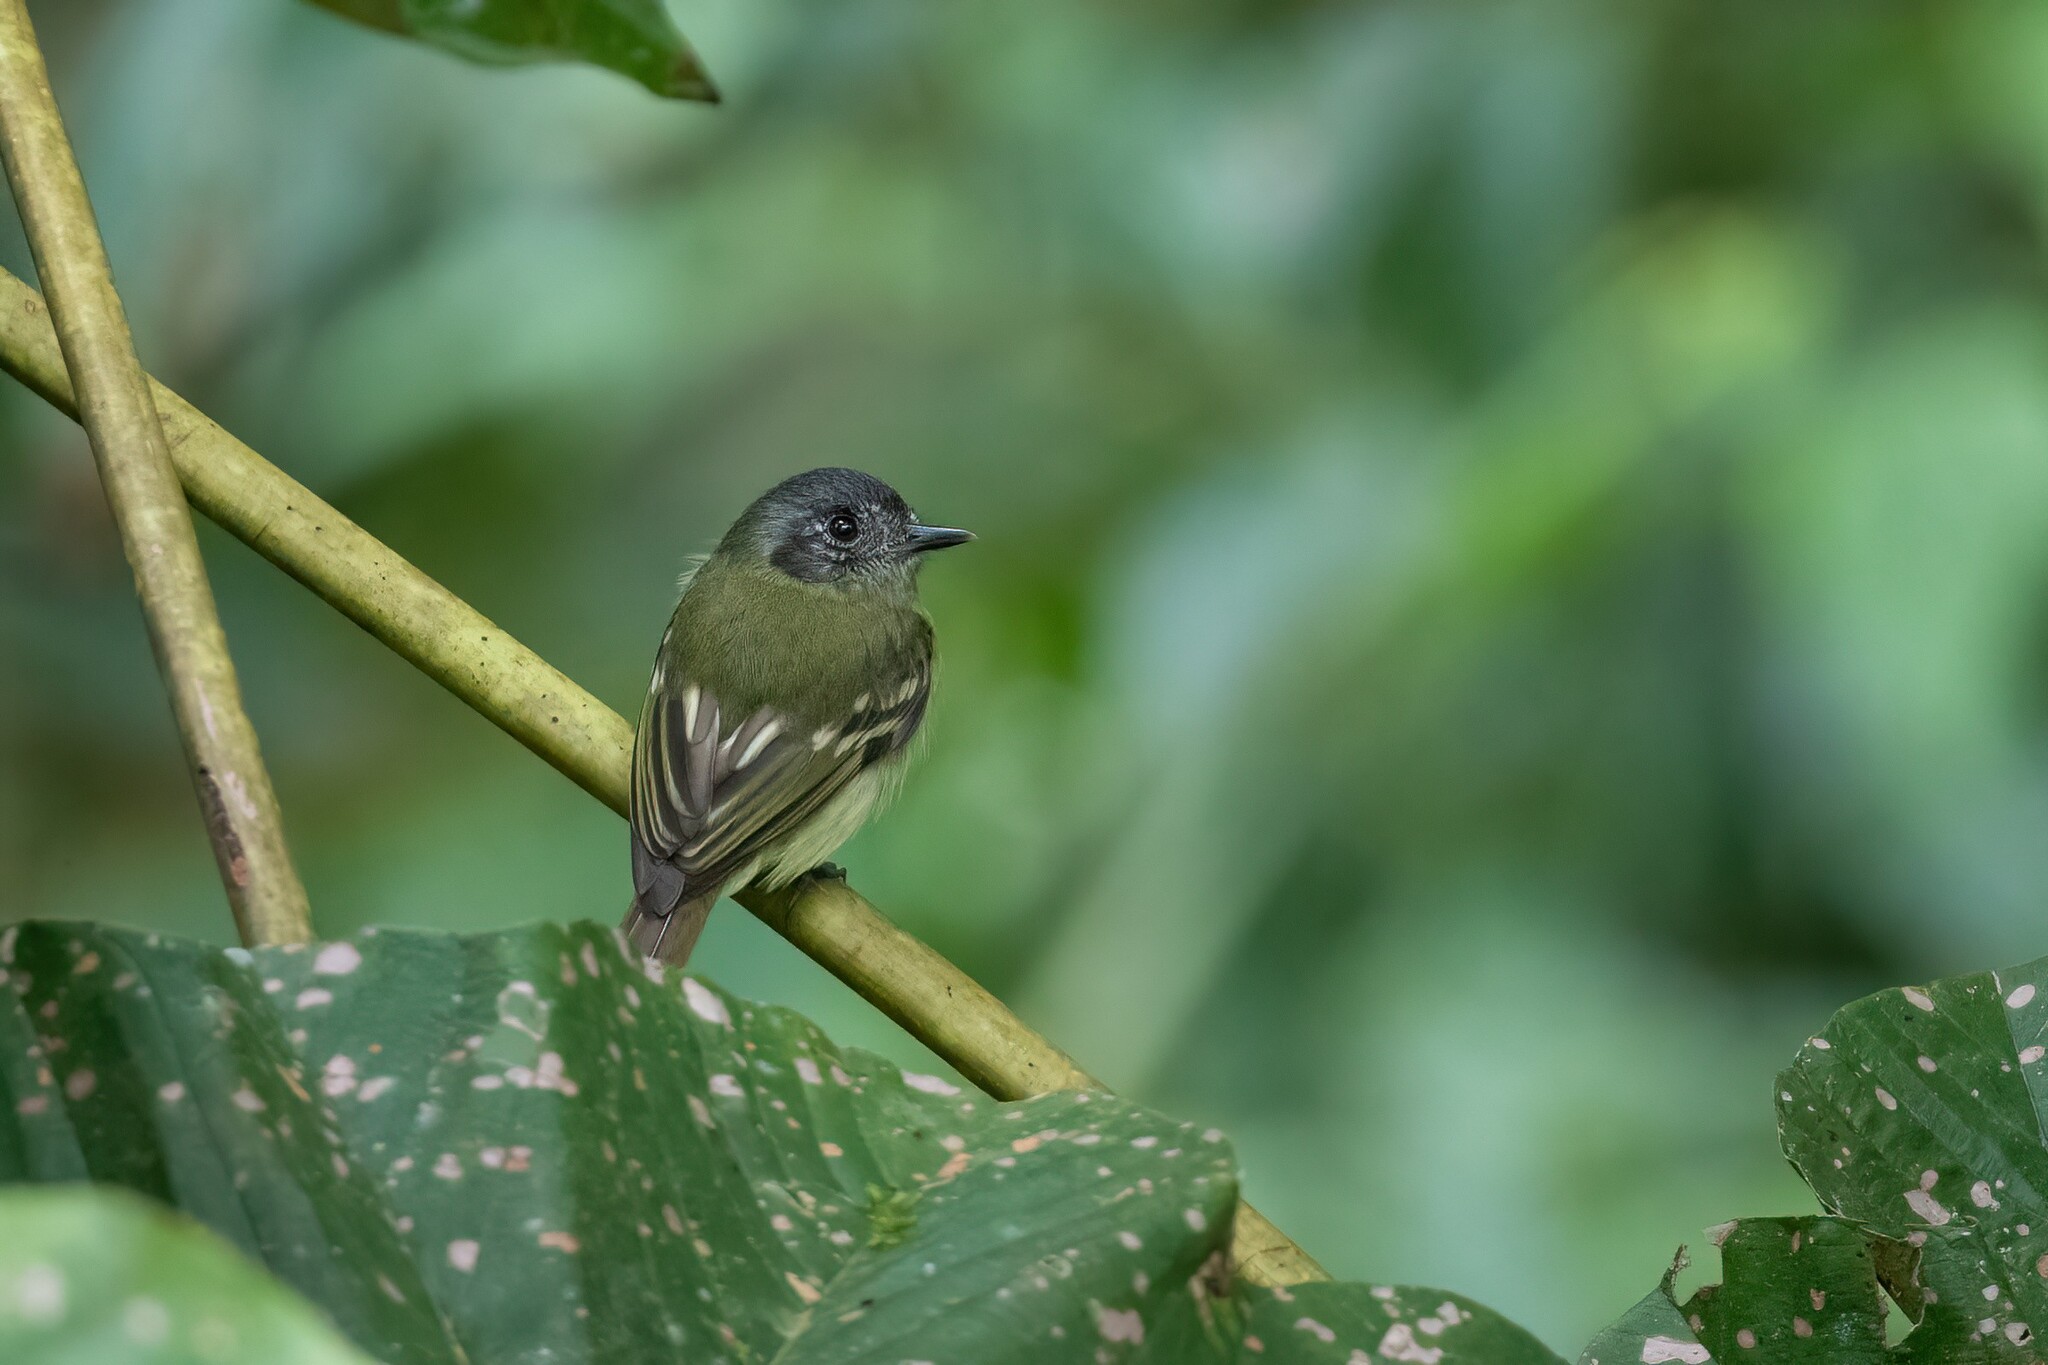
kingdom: Animalia
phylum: Chordata
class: Aves
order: Passeriformes
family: Tyrannidae
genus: Leptopogon
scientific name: Leptopogon superciliaris
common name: Slaty-capped flycatcher
